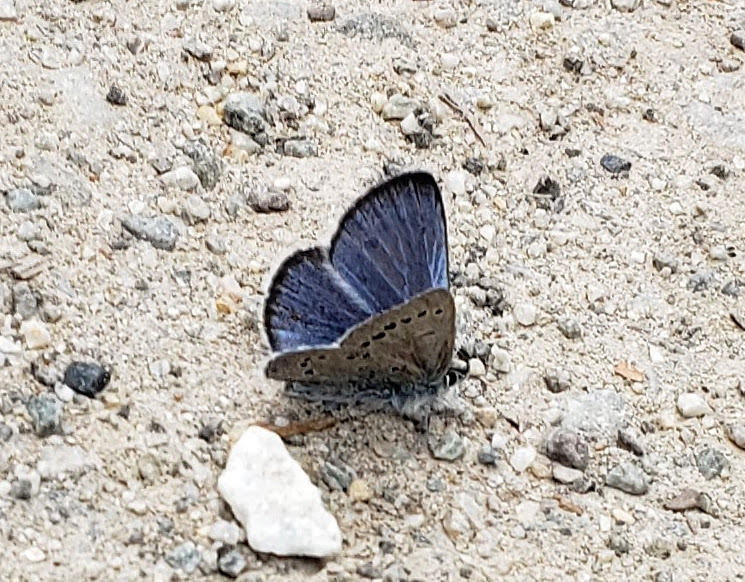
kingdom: Animalia
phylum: Arthropoda
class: Insecta
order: Lepidoptera
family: Lycaenidae
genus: Glaucopsyche
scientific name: Glaucopsyche lygdamus
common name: Silvery blue
